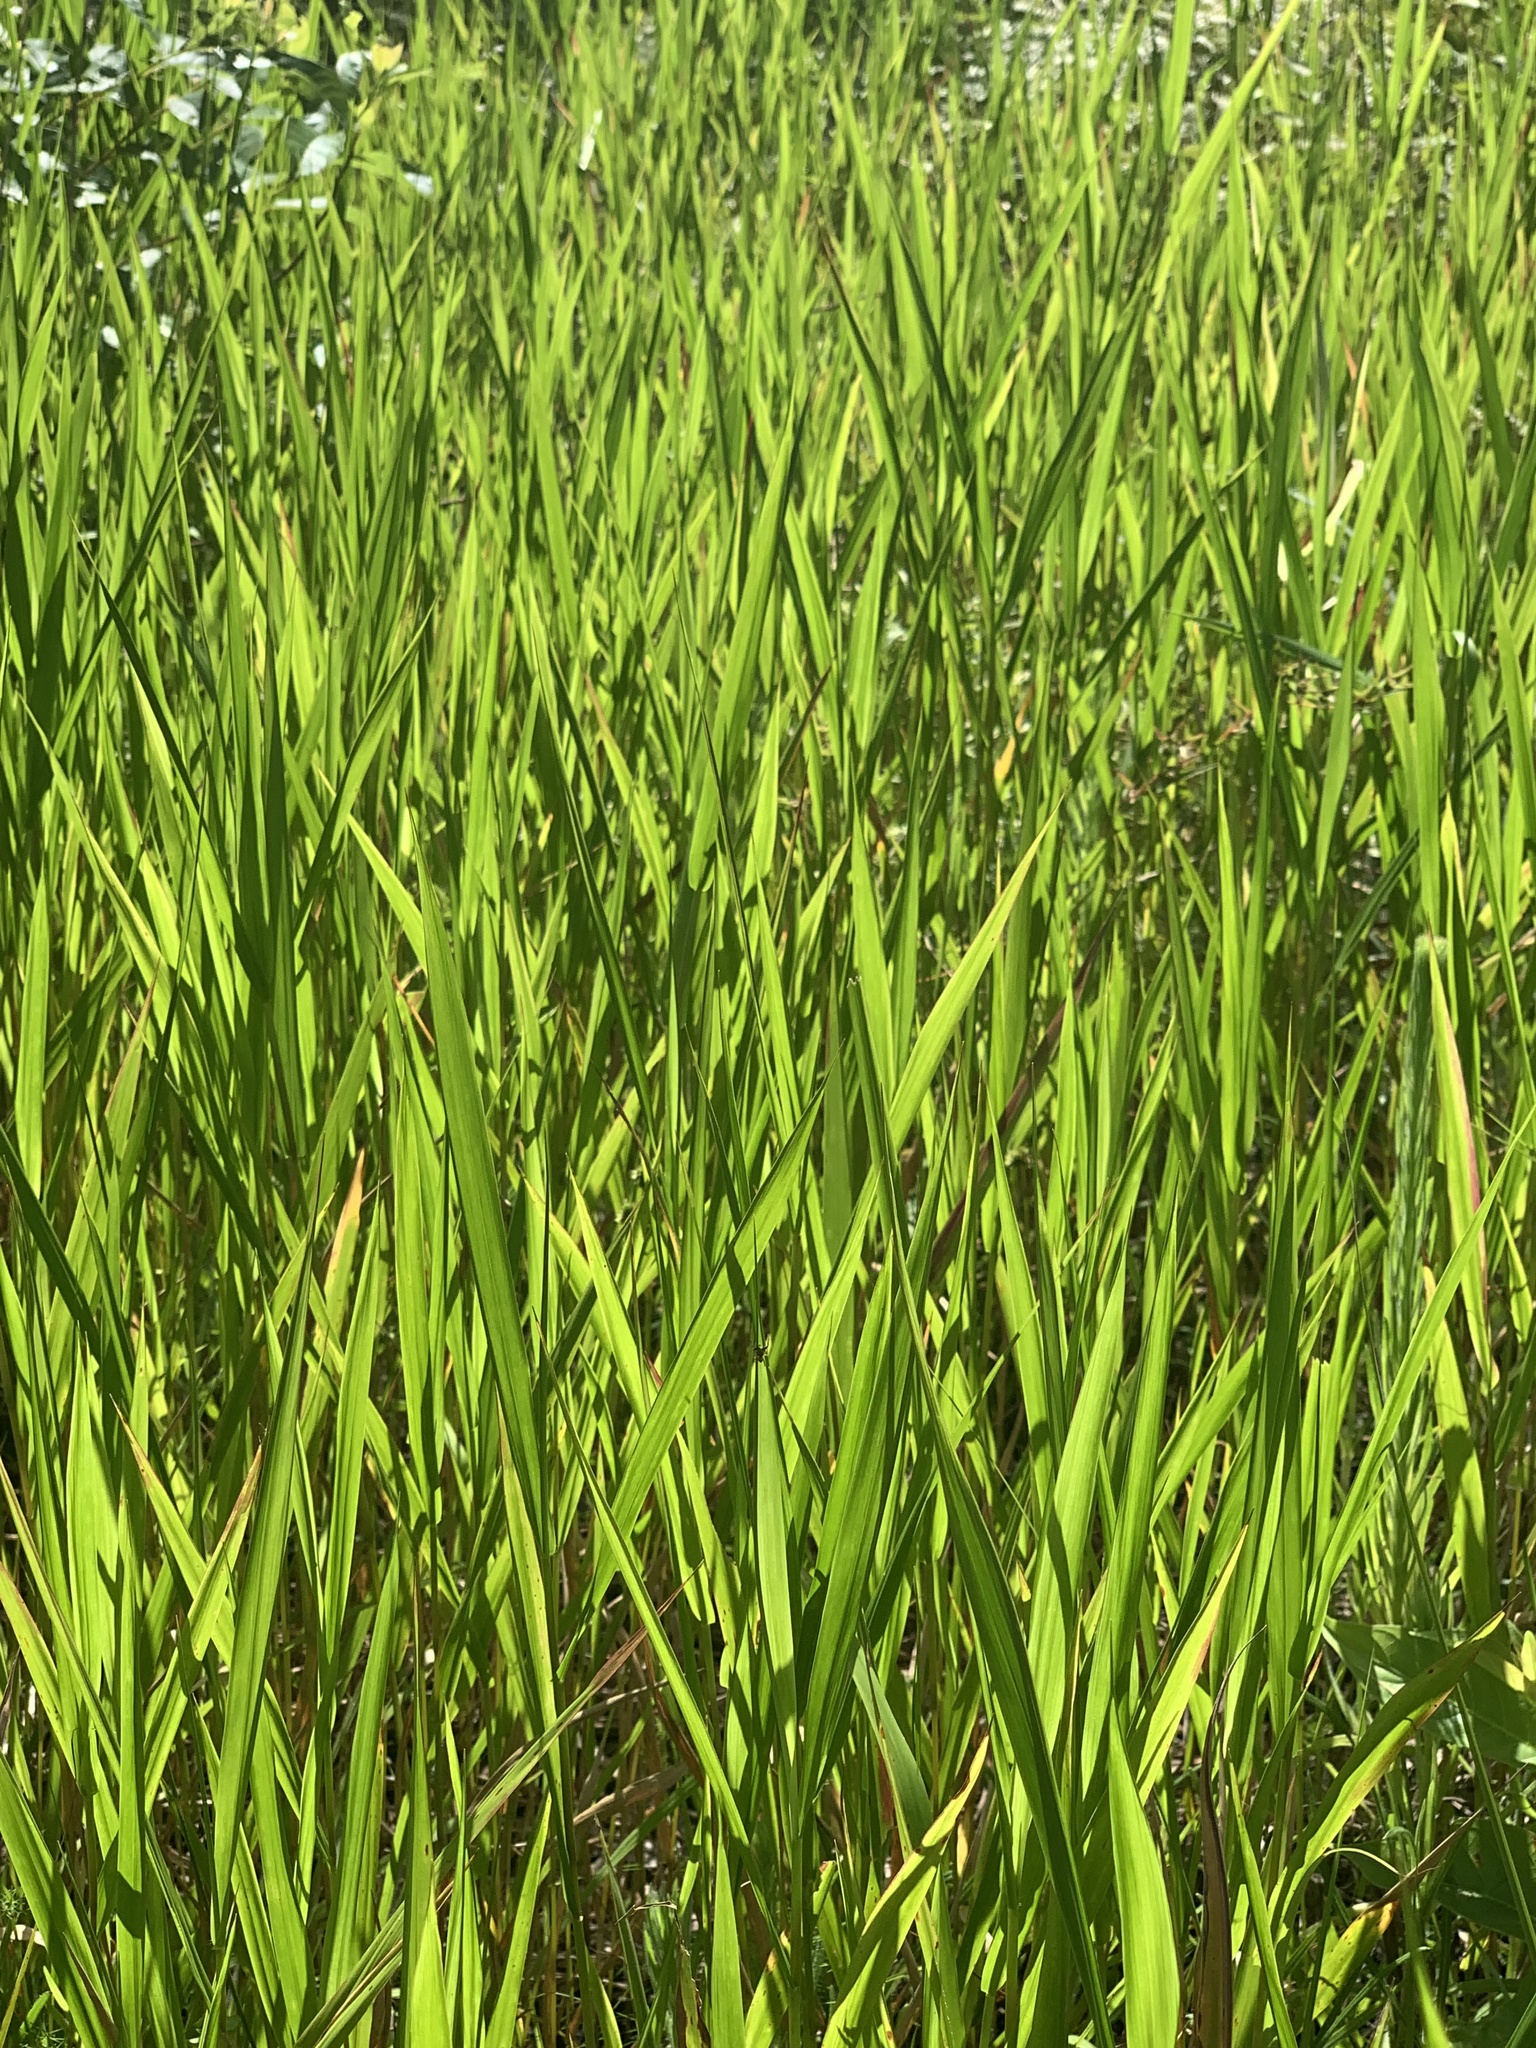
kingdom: Plantae
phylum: Tracheophyta
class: Liliopsida
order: Poales
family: Poaceae
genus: Panicum
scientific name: Panicum hemitomon
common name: Maidencane
